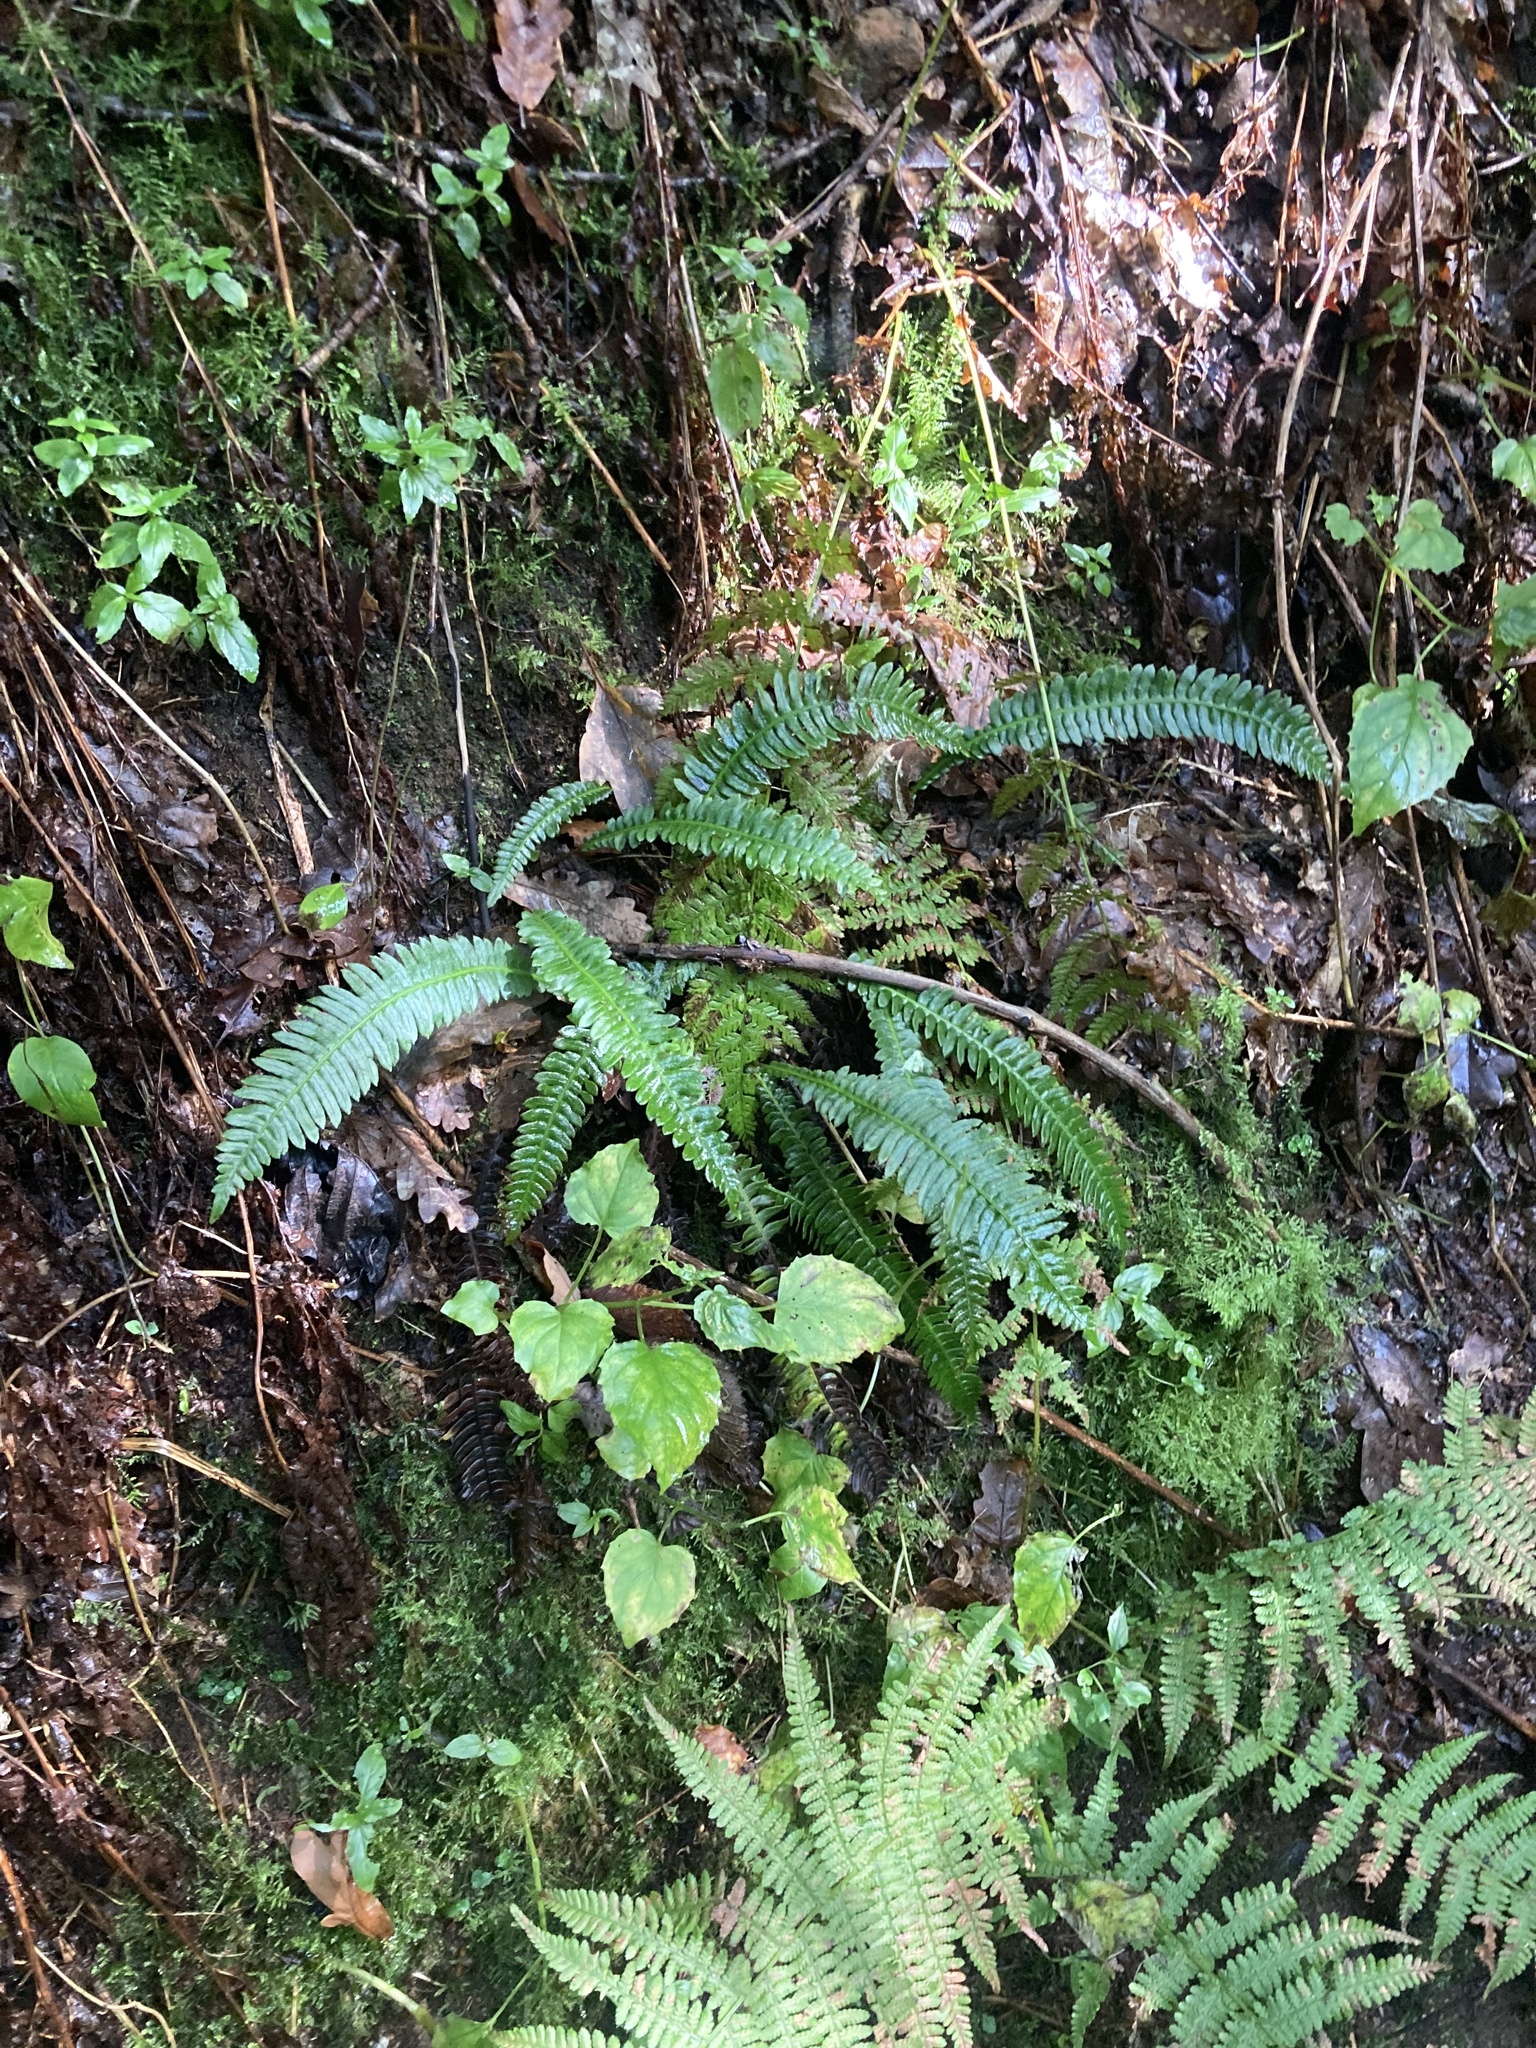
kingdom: Plantae
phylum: Tracheophyta
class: Polypodiopsida
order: Polypodiales
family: Blechnaceae
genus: Struthiopteris
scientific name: Struthiopteris spicant
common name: Deer fern
